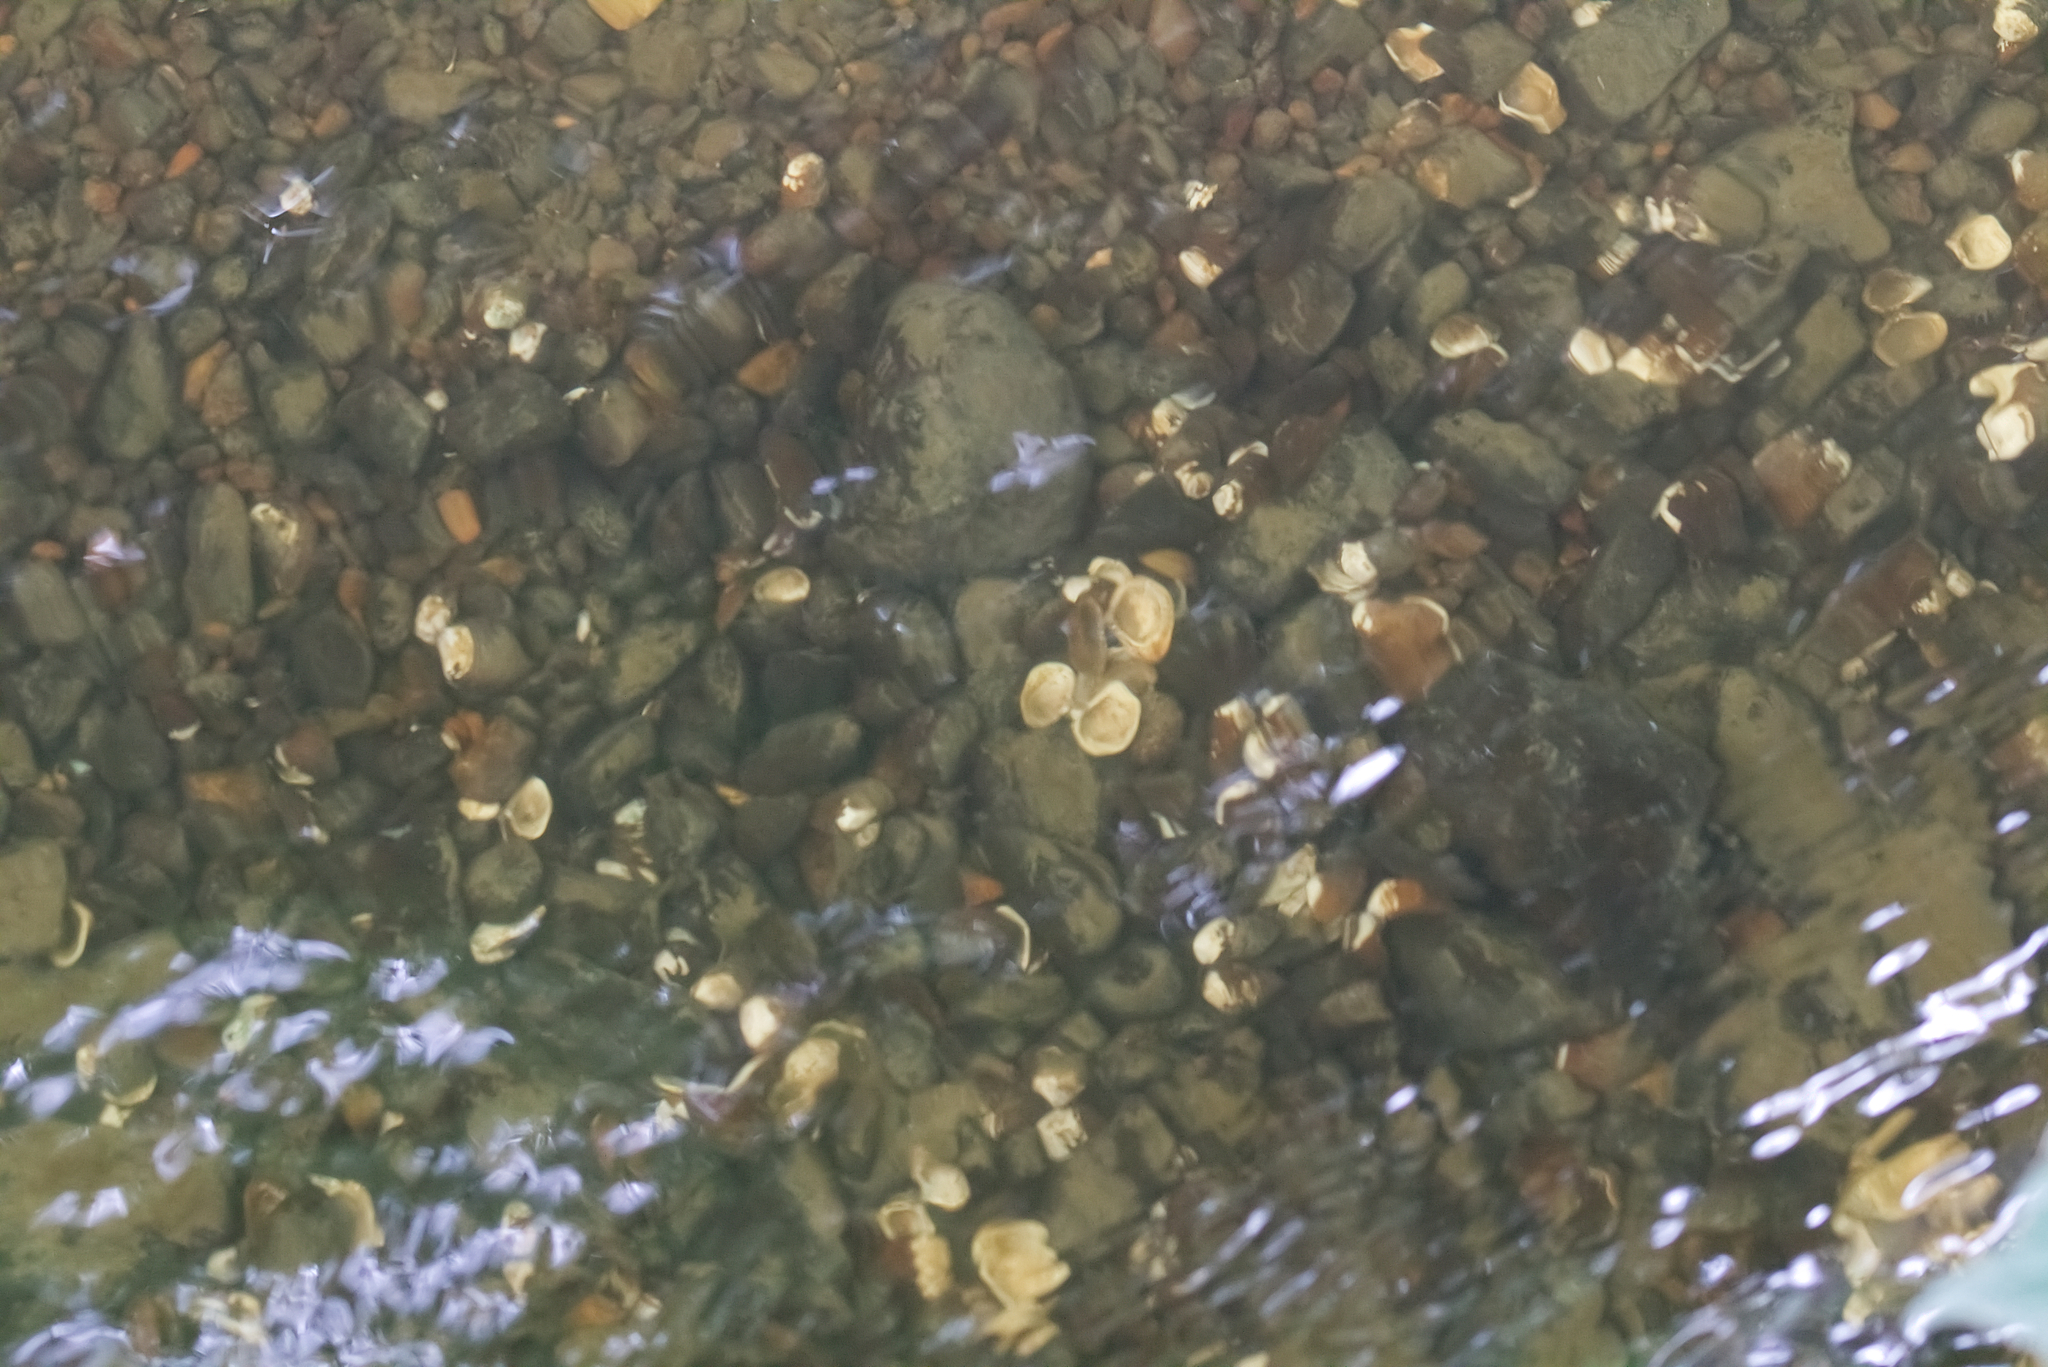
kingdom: Animalia
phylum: Mollusca
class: Bivalvia
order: Venerida
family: Cyrenidae
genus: Corbicula
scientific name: Corbicula fluminea
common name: Asian clam
